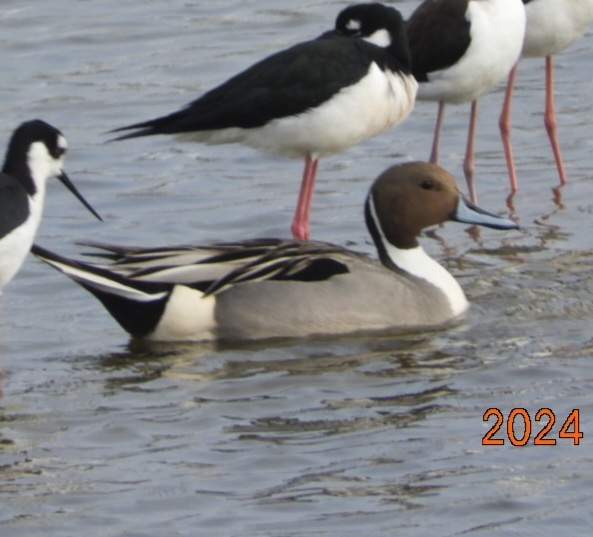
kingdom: Animalia
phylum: Chordata
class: Aves
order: Anseriformes
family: Anatidae
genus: Anas
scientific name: Anas acuta
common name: Northern pintail
